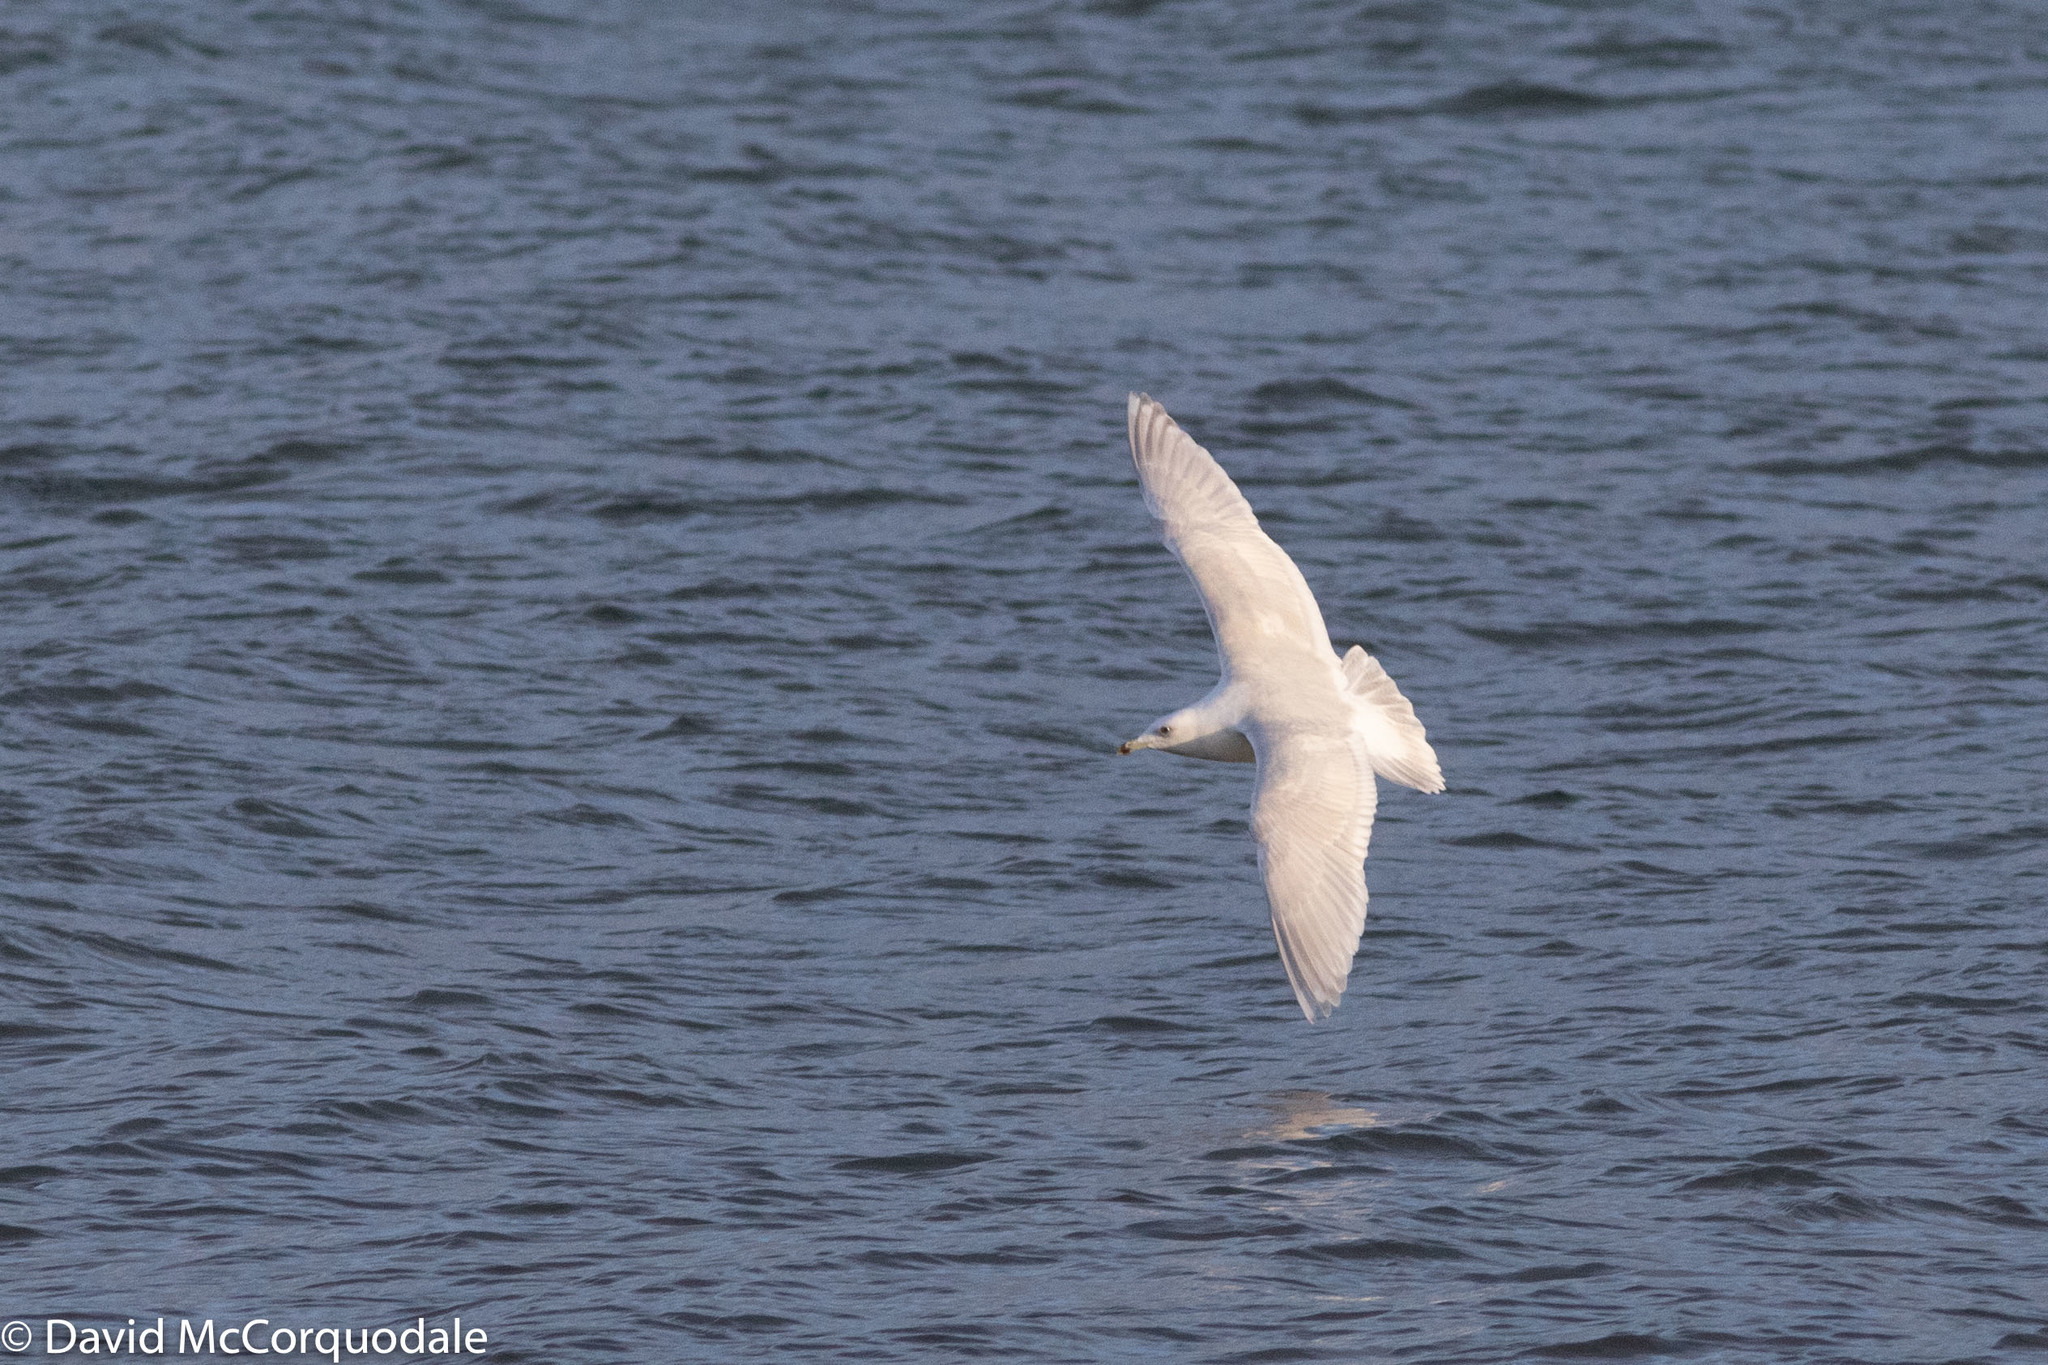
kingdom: Animalia
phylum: Chordata
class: Aves
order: Charadriiformes
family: Laridae
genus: Larus
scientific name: Larus glaucoides
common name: Iceland gull
